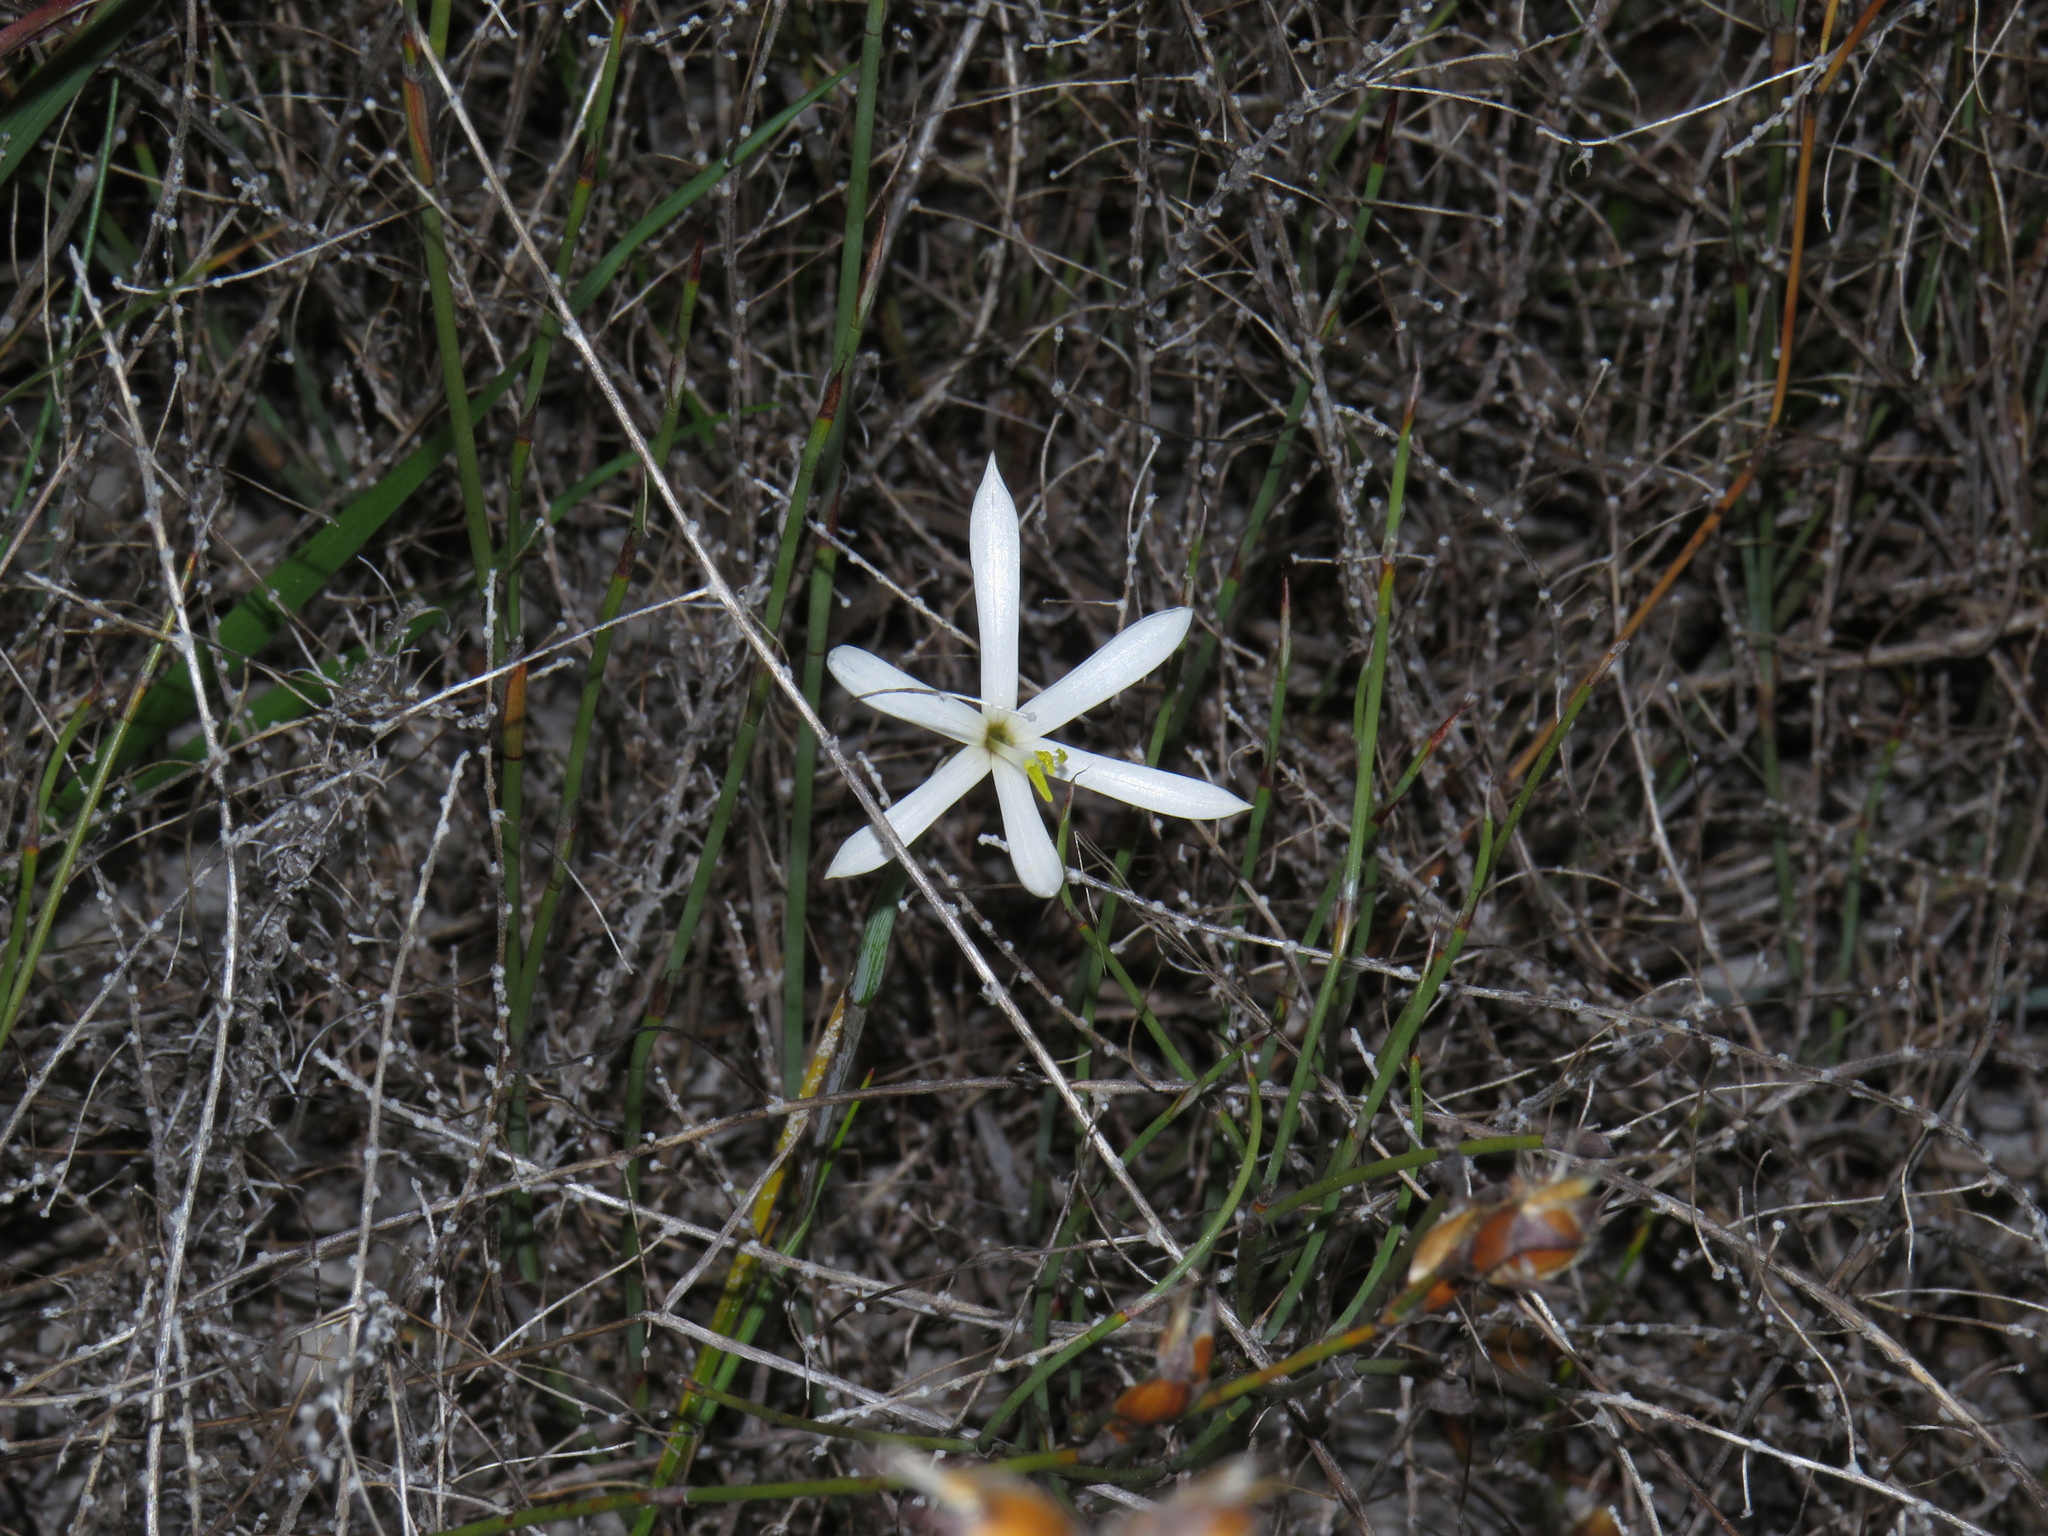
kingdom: Plantae
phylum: Tracheophyta
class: Liliopsida
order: Asparagales
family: Iridaceae
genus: Geissorhiza
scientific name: Geissorhiza tenella
